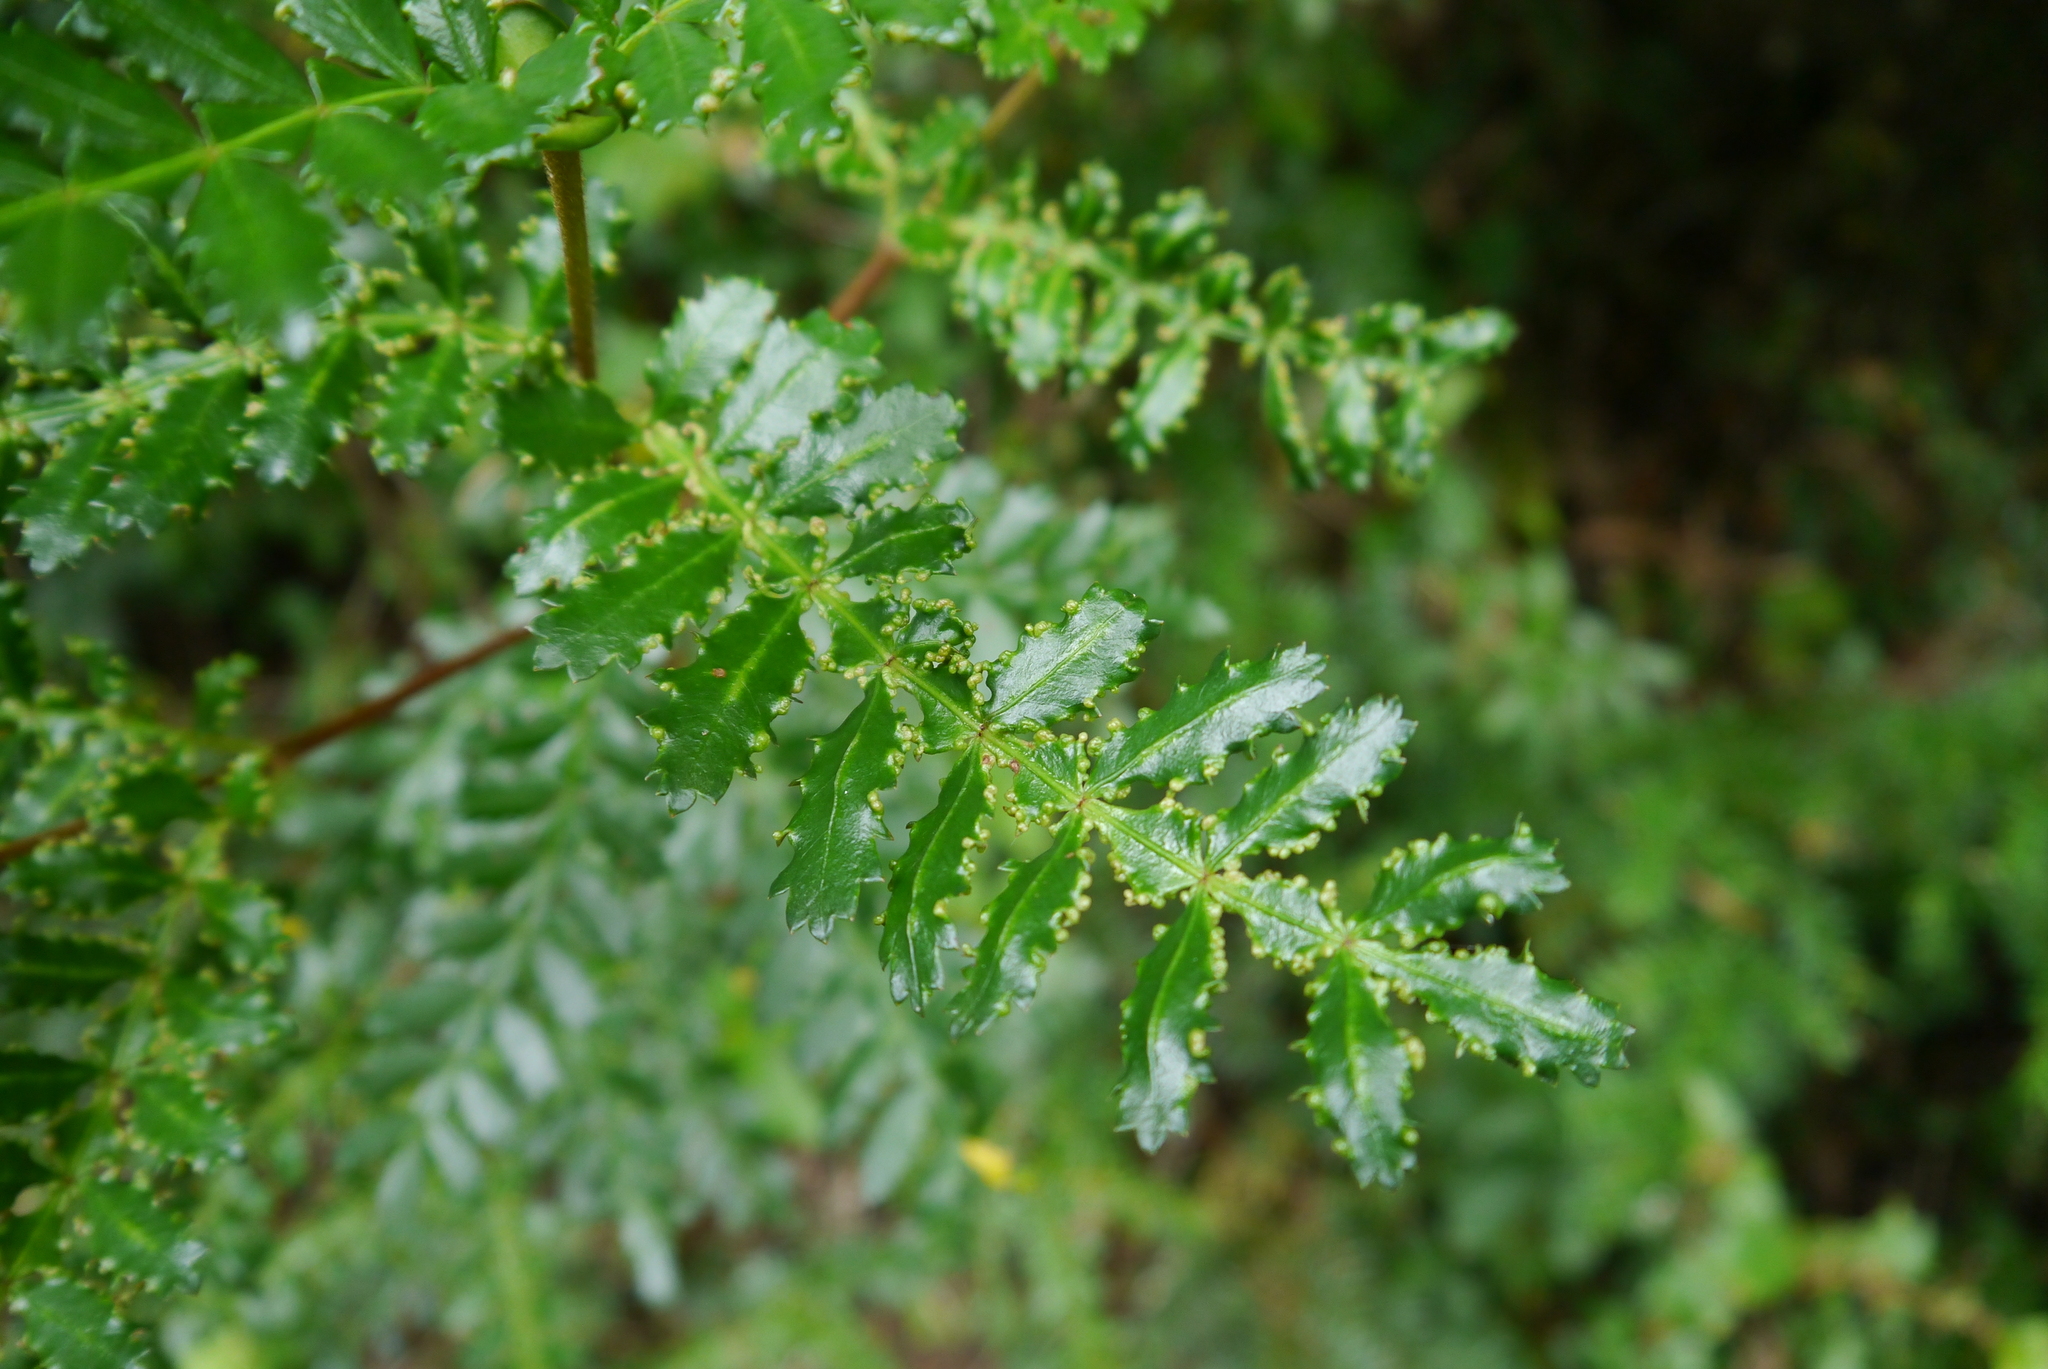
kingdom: Plantae
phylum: Tracheophyta
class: Magnoliopsida
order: Oxalidales
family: Cunoniaceae
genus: Weinmannia
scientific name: Weinmannia trichosperma
